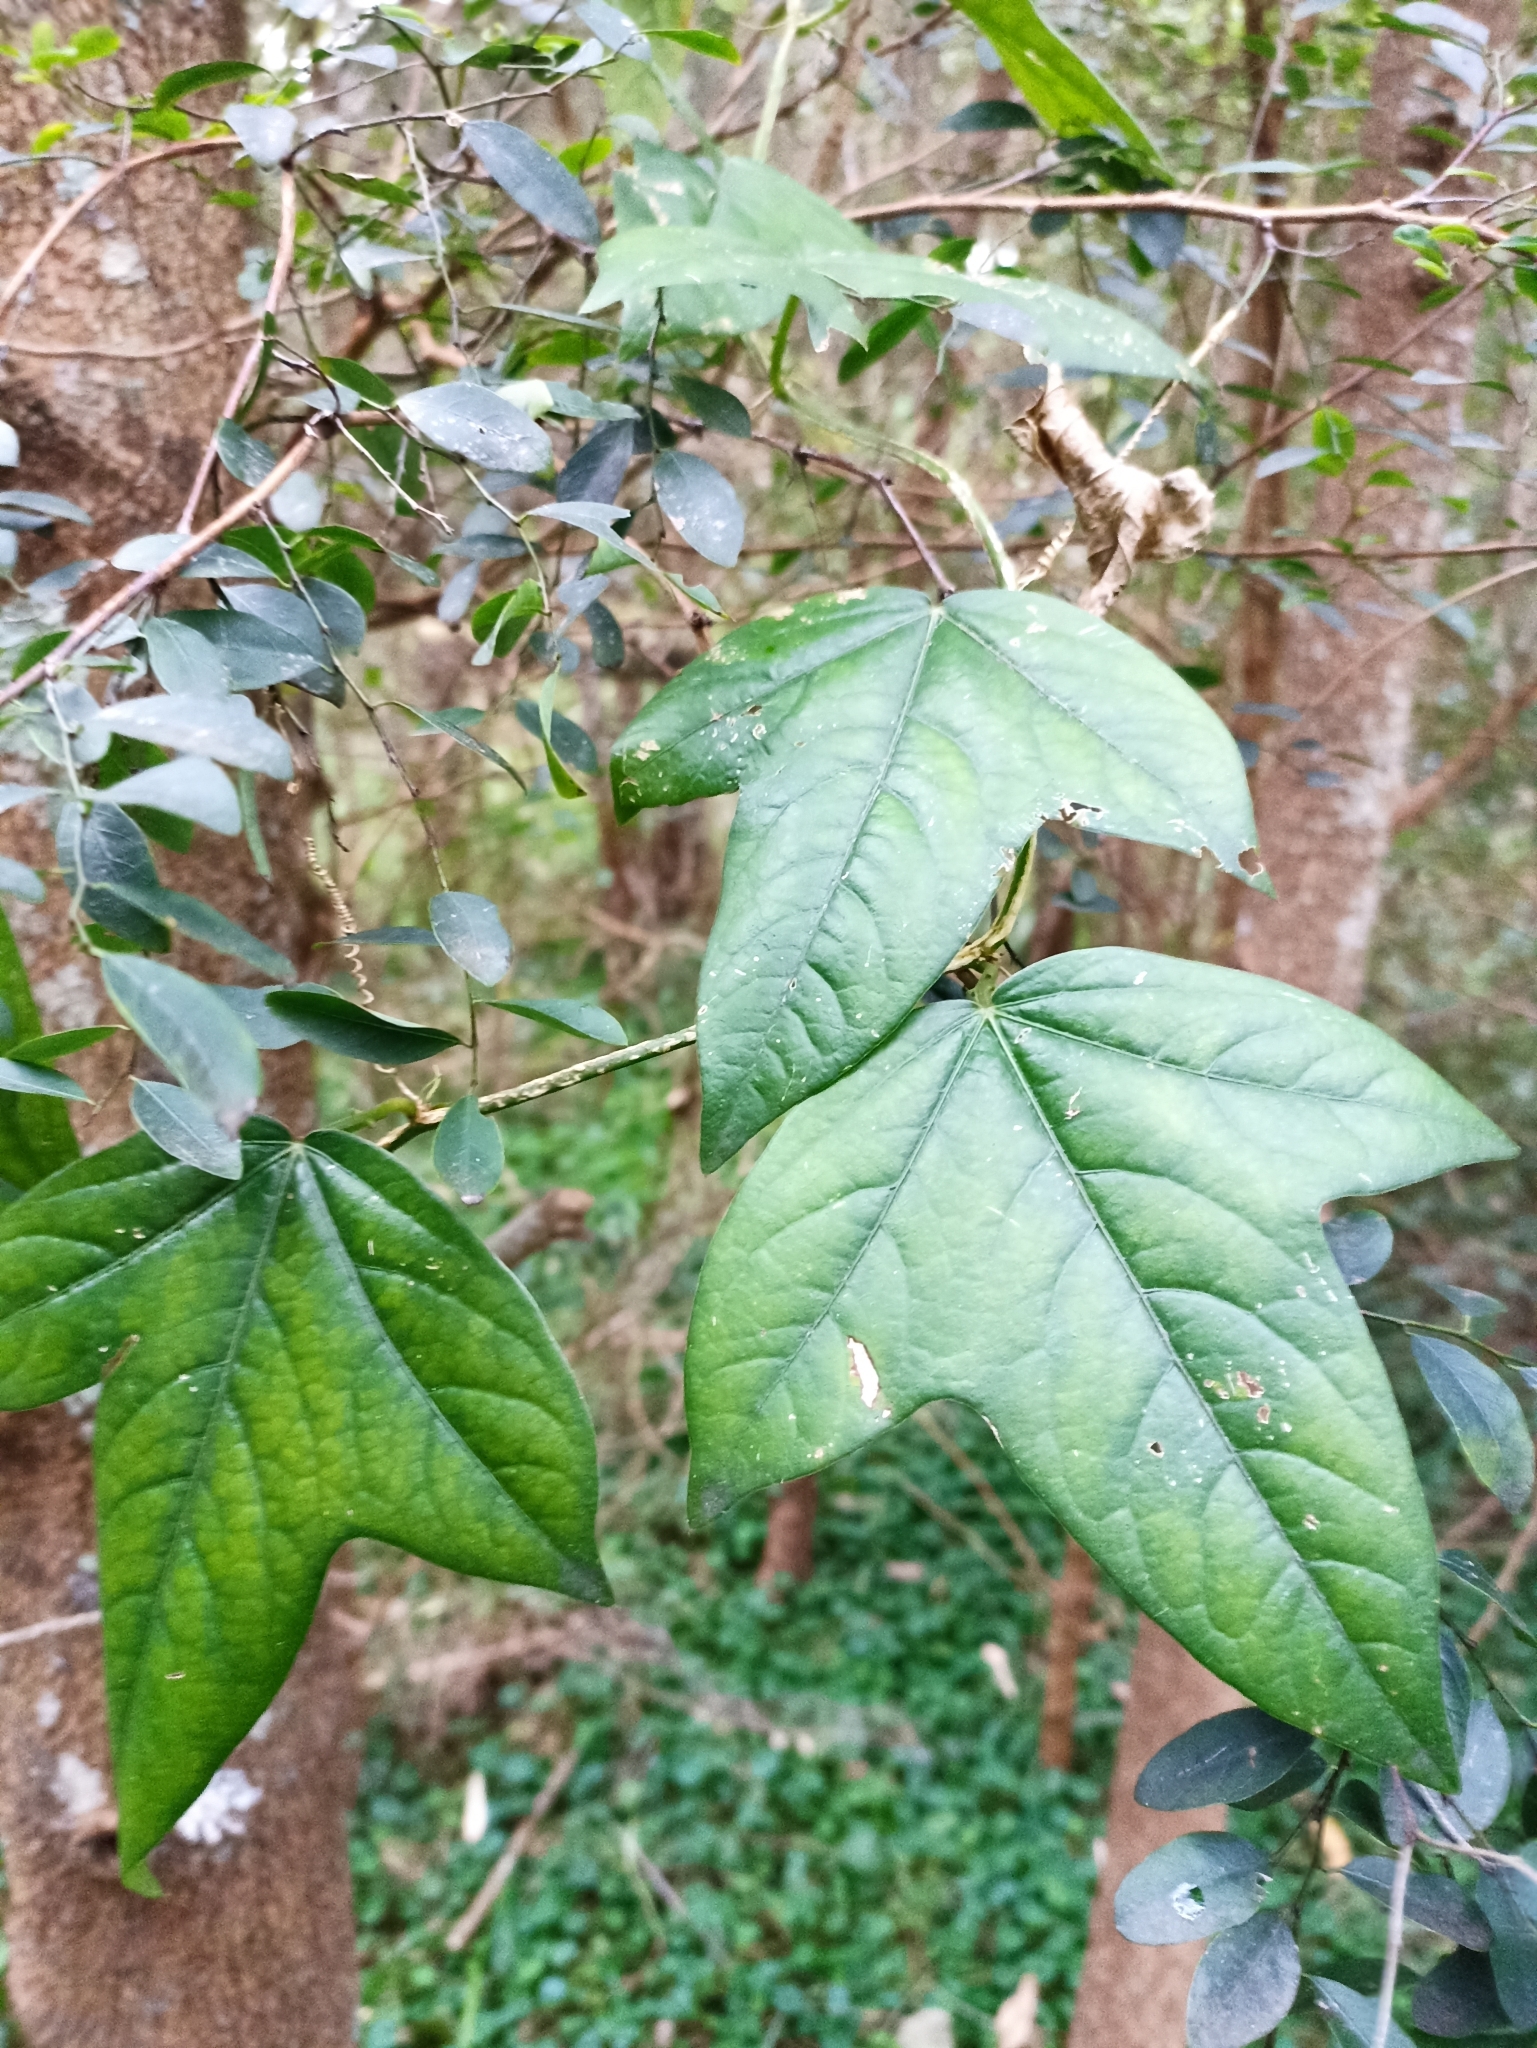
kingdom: Plantae
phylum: Tracheophyta
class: Magnoliopsida
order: Malpighiales
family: Passifloraceae
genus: Passiflora
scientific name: Passiflora suberosa
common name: Wild passionfruit
